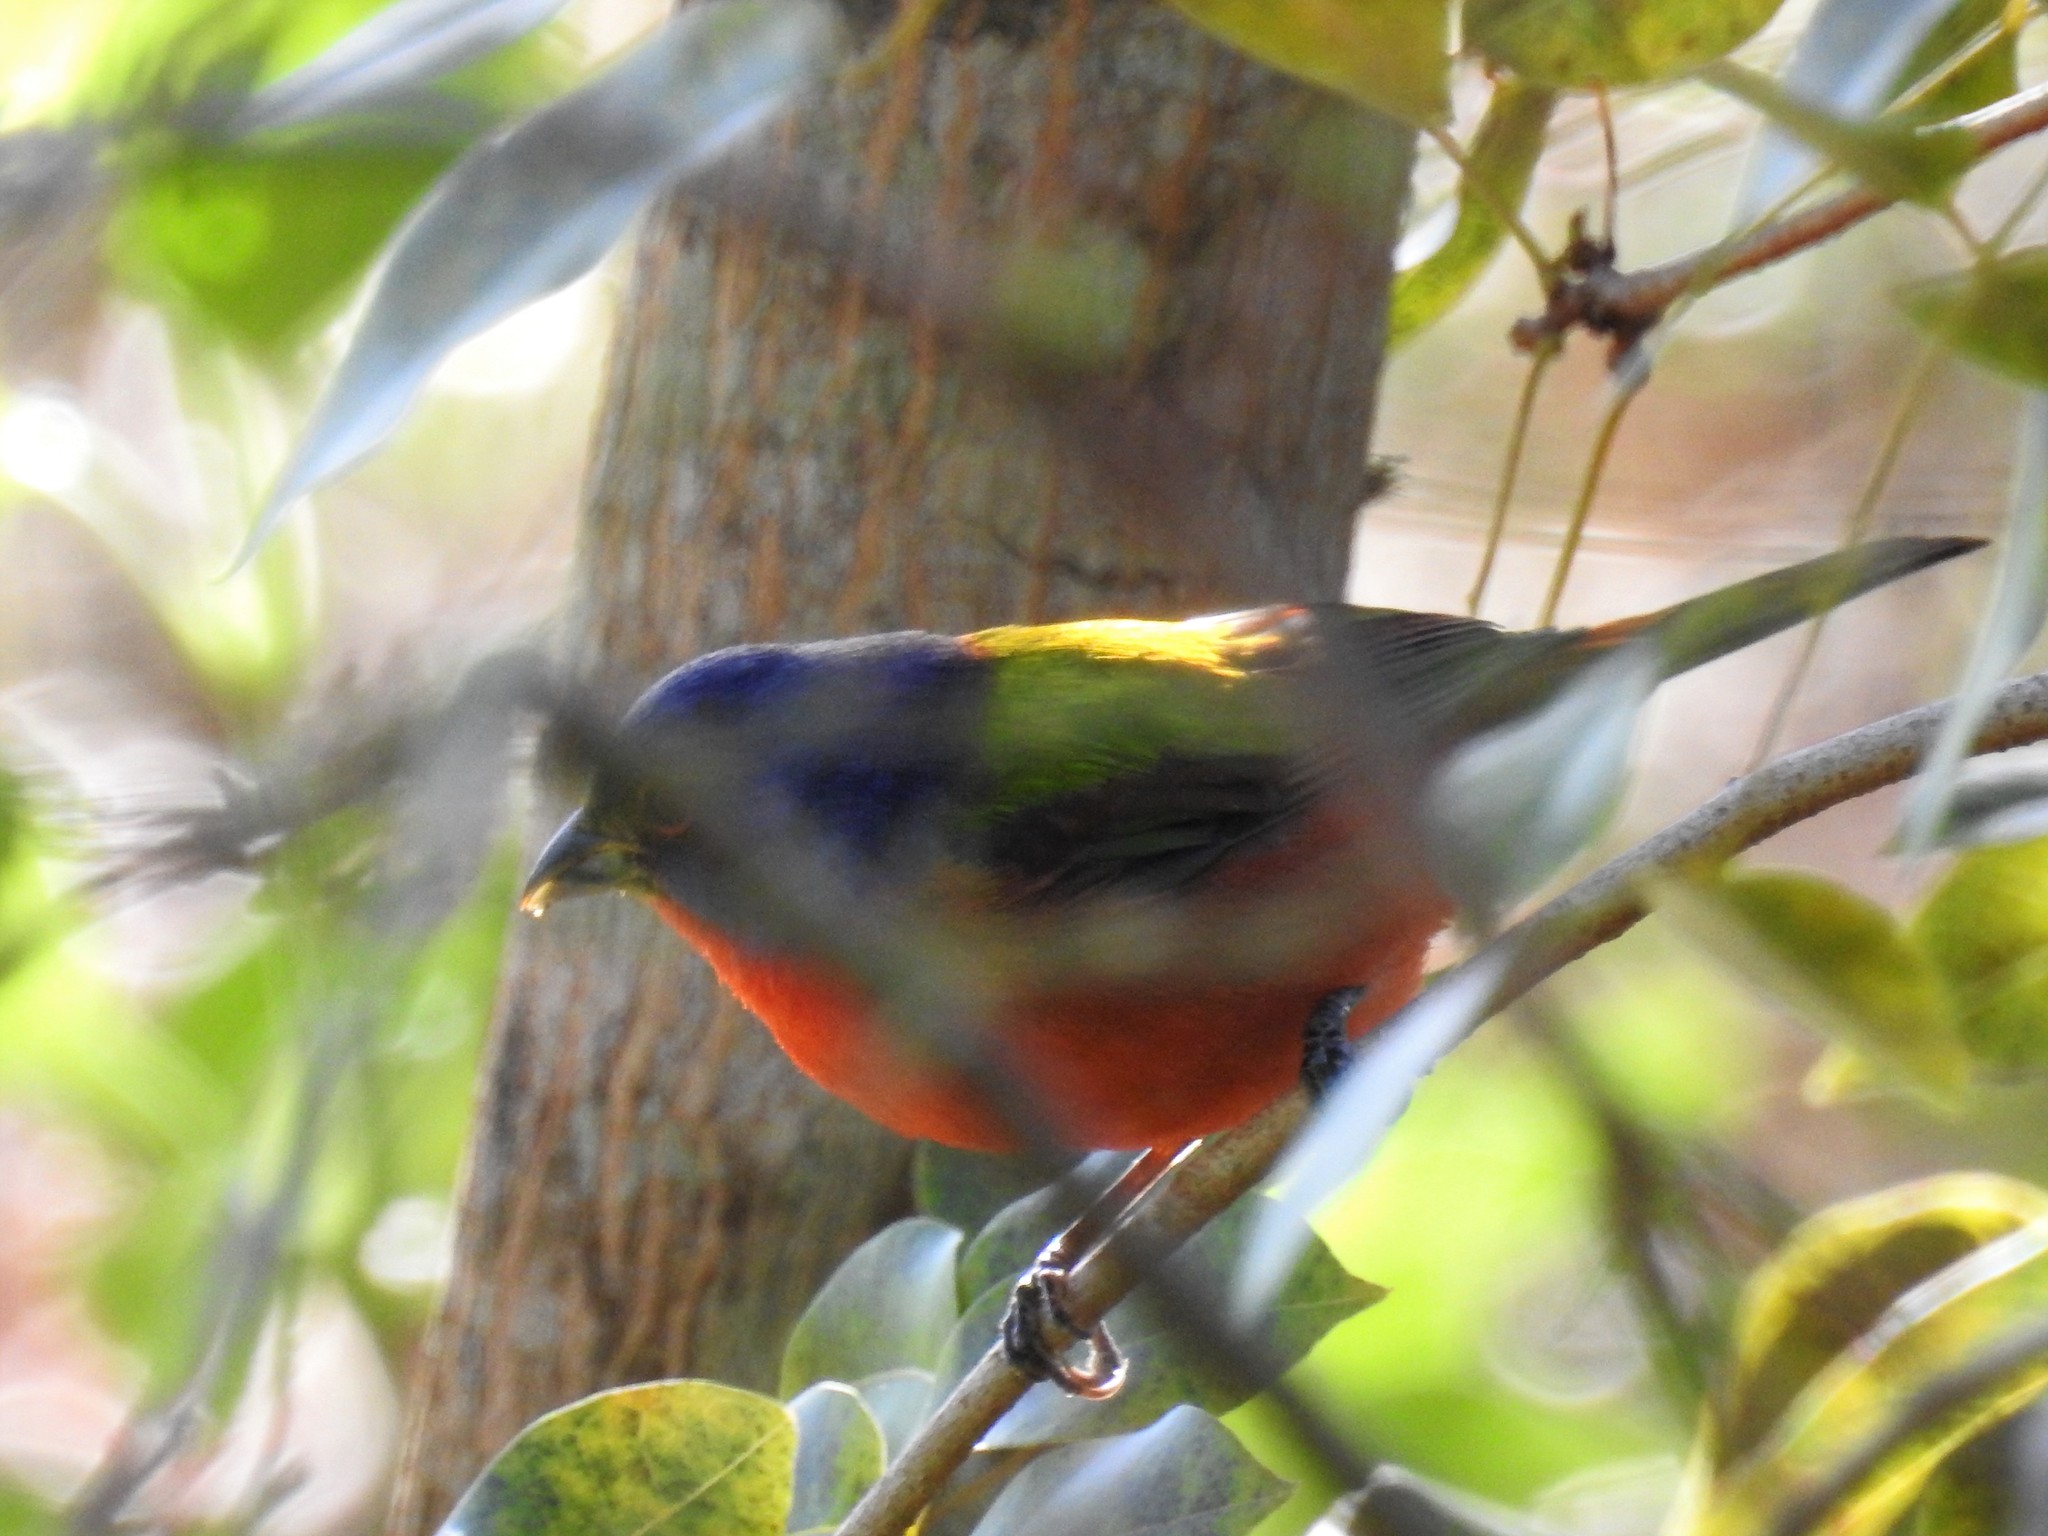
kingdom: Animalia
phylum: Chordata
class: Aves
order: Passeriformes
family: Cardinalidae
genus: Passerina
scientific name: Passerina ciris
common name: Painted bunting
